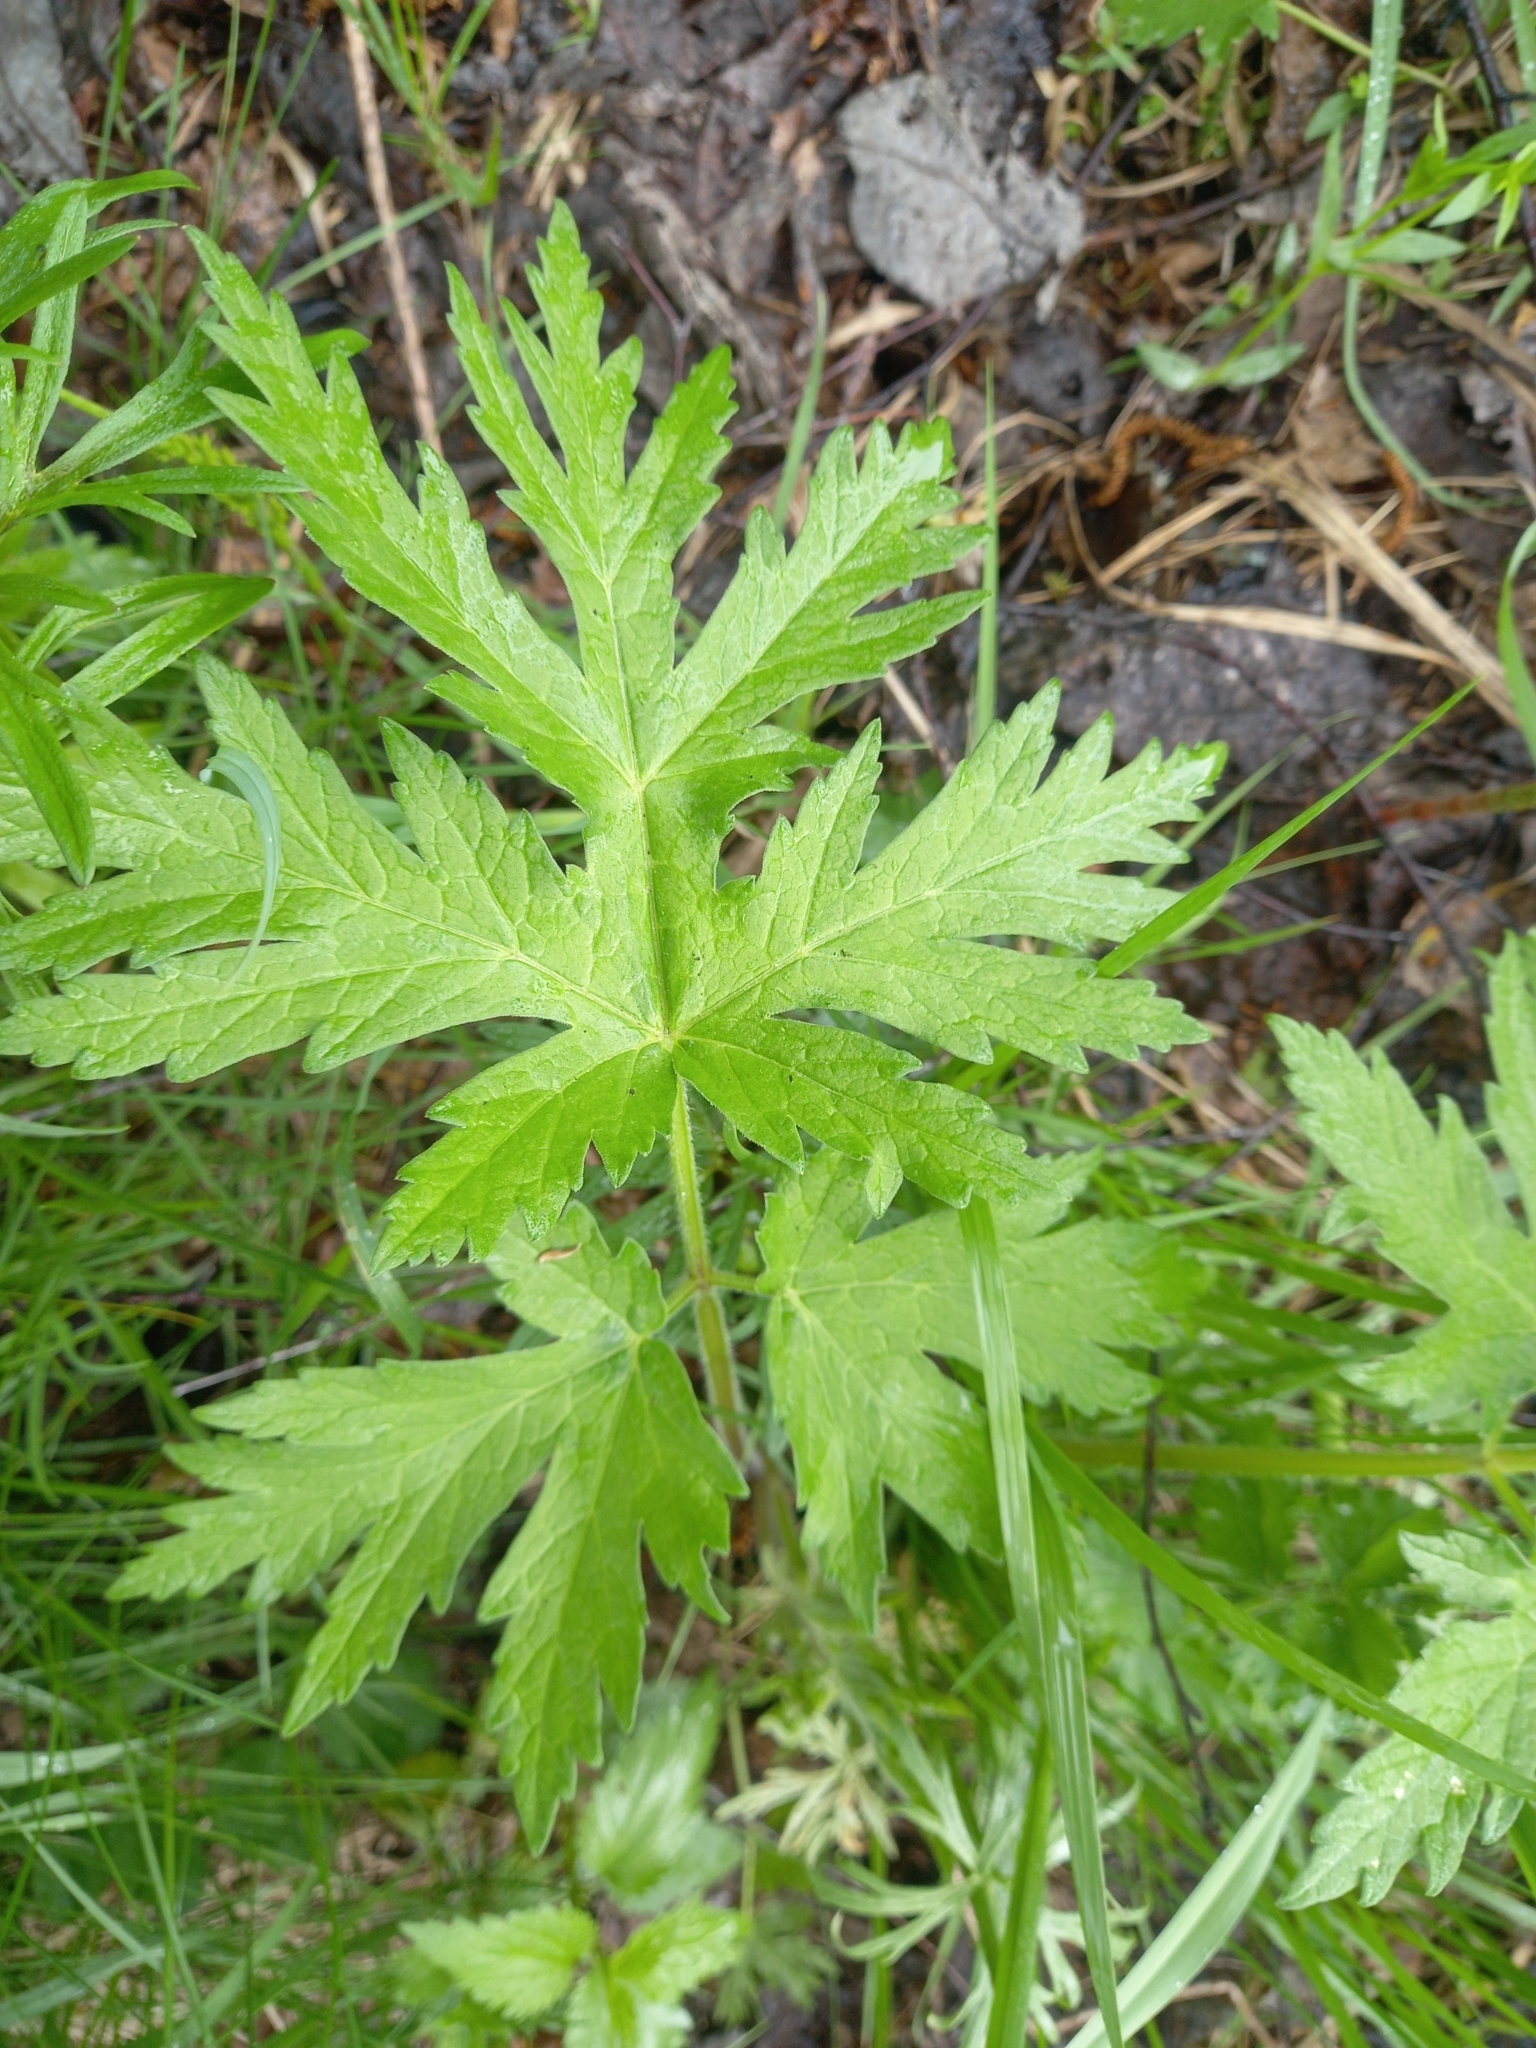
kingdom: Plantae
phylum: Tracheophyta
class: Magnoliopsida
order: Apiales
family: Apiaceae
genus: Heracleum
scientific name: Heracleum sphondylium
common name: Hogweed
